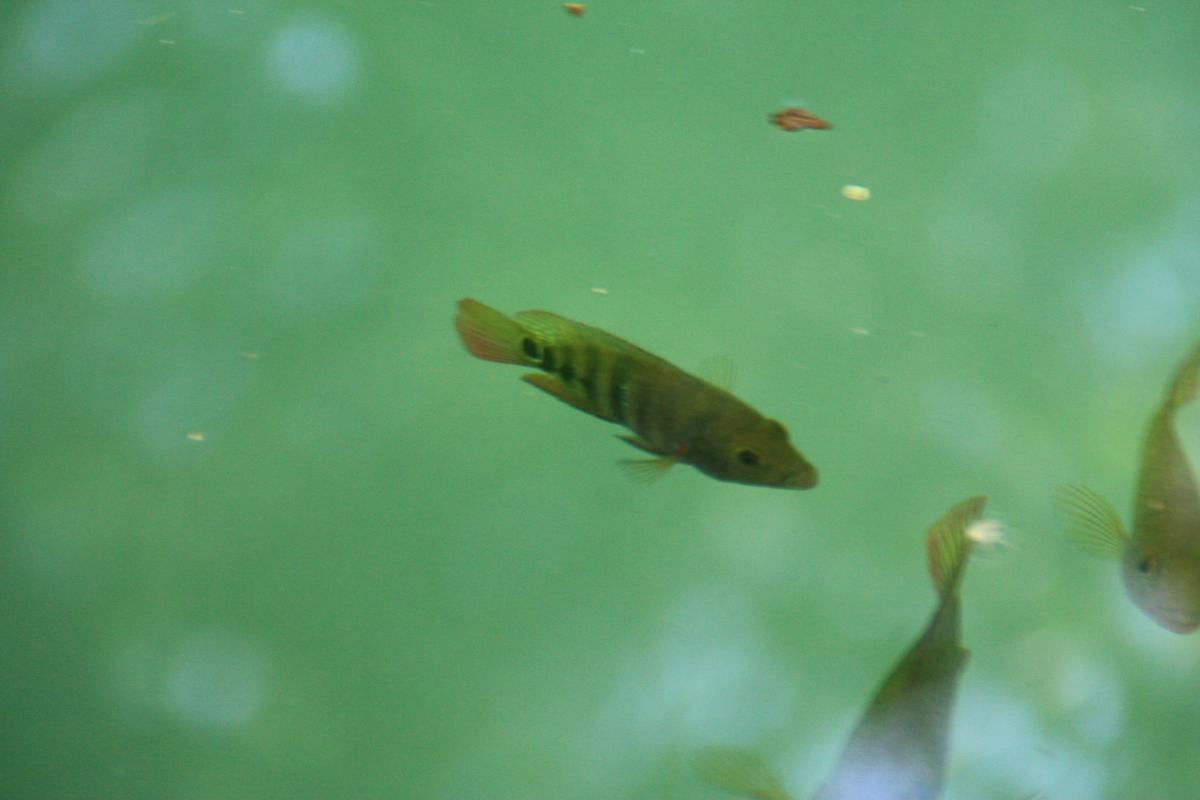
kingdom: Animalia
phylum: Chordata
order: Perciformes
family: Cichlidae
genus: Mayaheros
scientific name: Mayaheros urophthalmus
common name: Mayan cichlid
